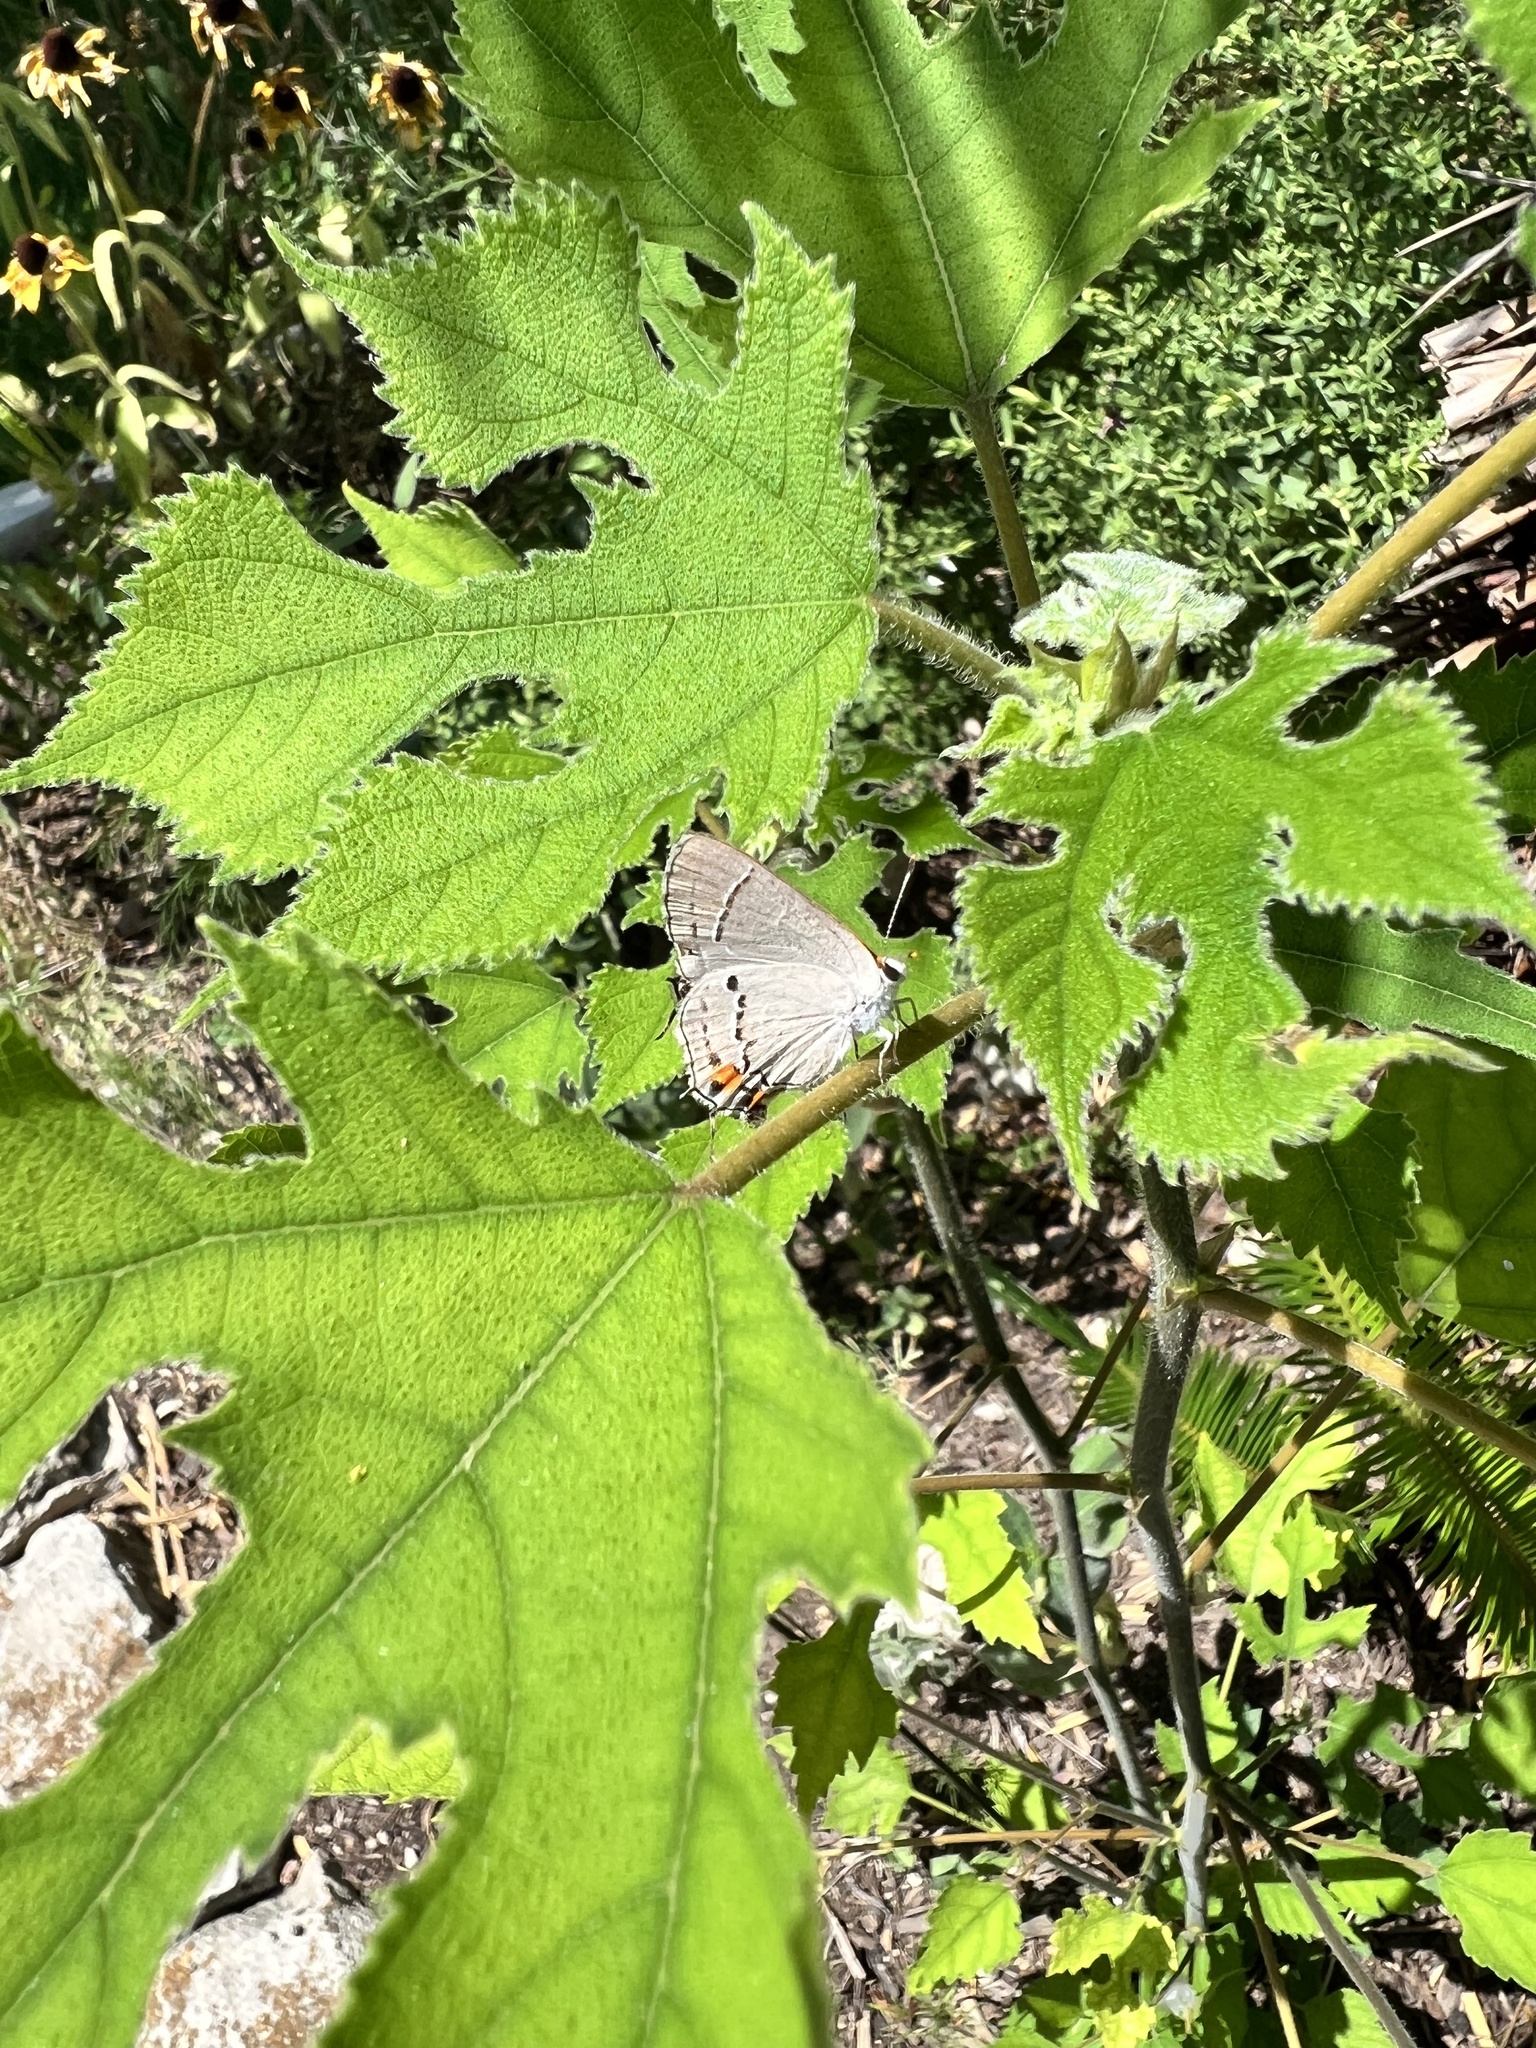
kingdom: Animalia
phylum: Arthropoda
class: Insecta
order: Lepidoptera
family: Lycaenidae
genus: Strymon
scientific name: Strymon melinus
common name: Gray hairstreak
